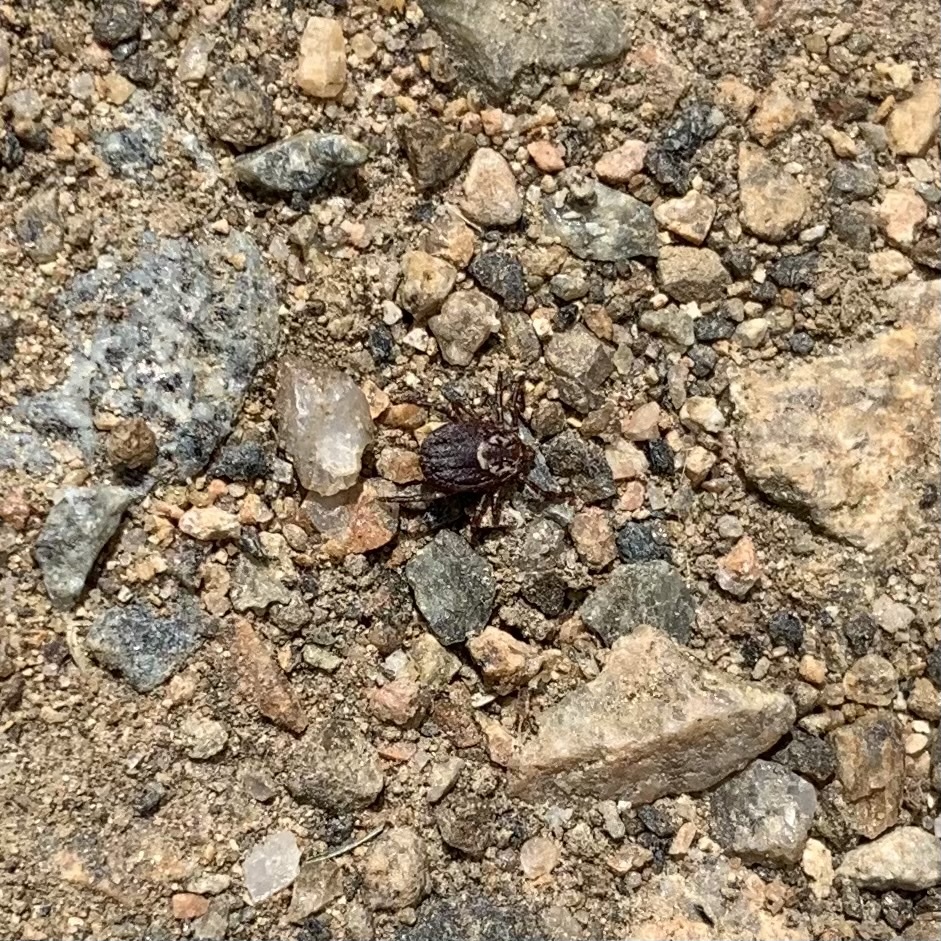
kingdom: Animalia
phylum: Arthropoda
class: Arachnida
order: Ixodida
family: Ixodidae
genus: Dermacentor
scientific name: Dermacentor variabilis
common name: American dog tick
